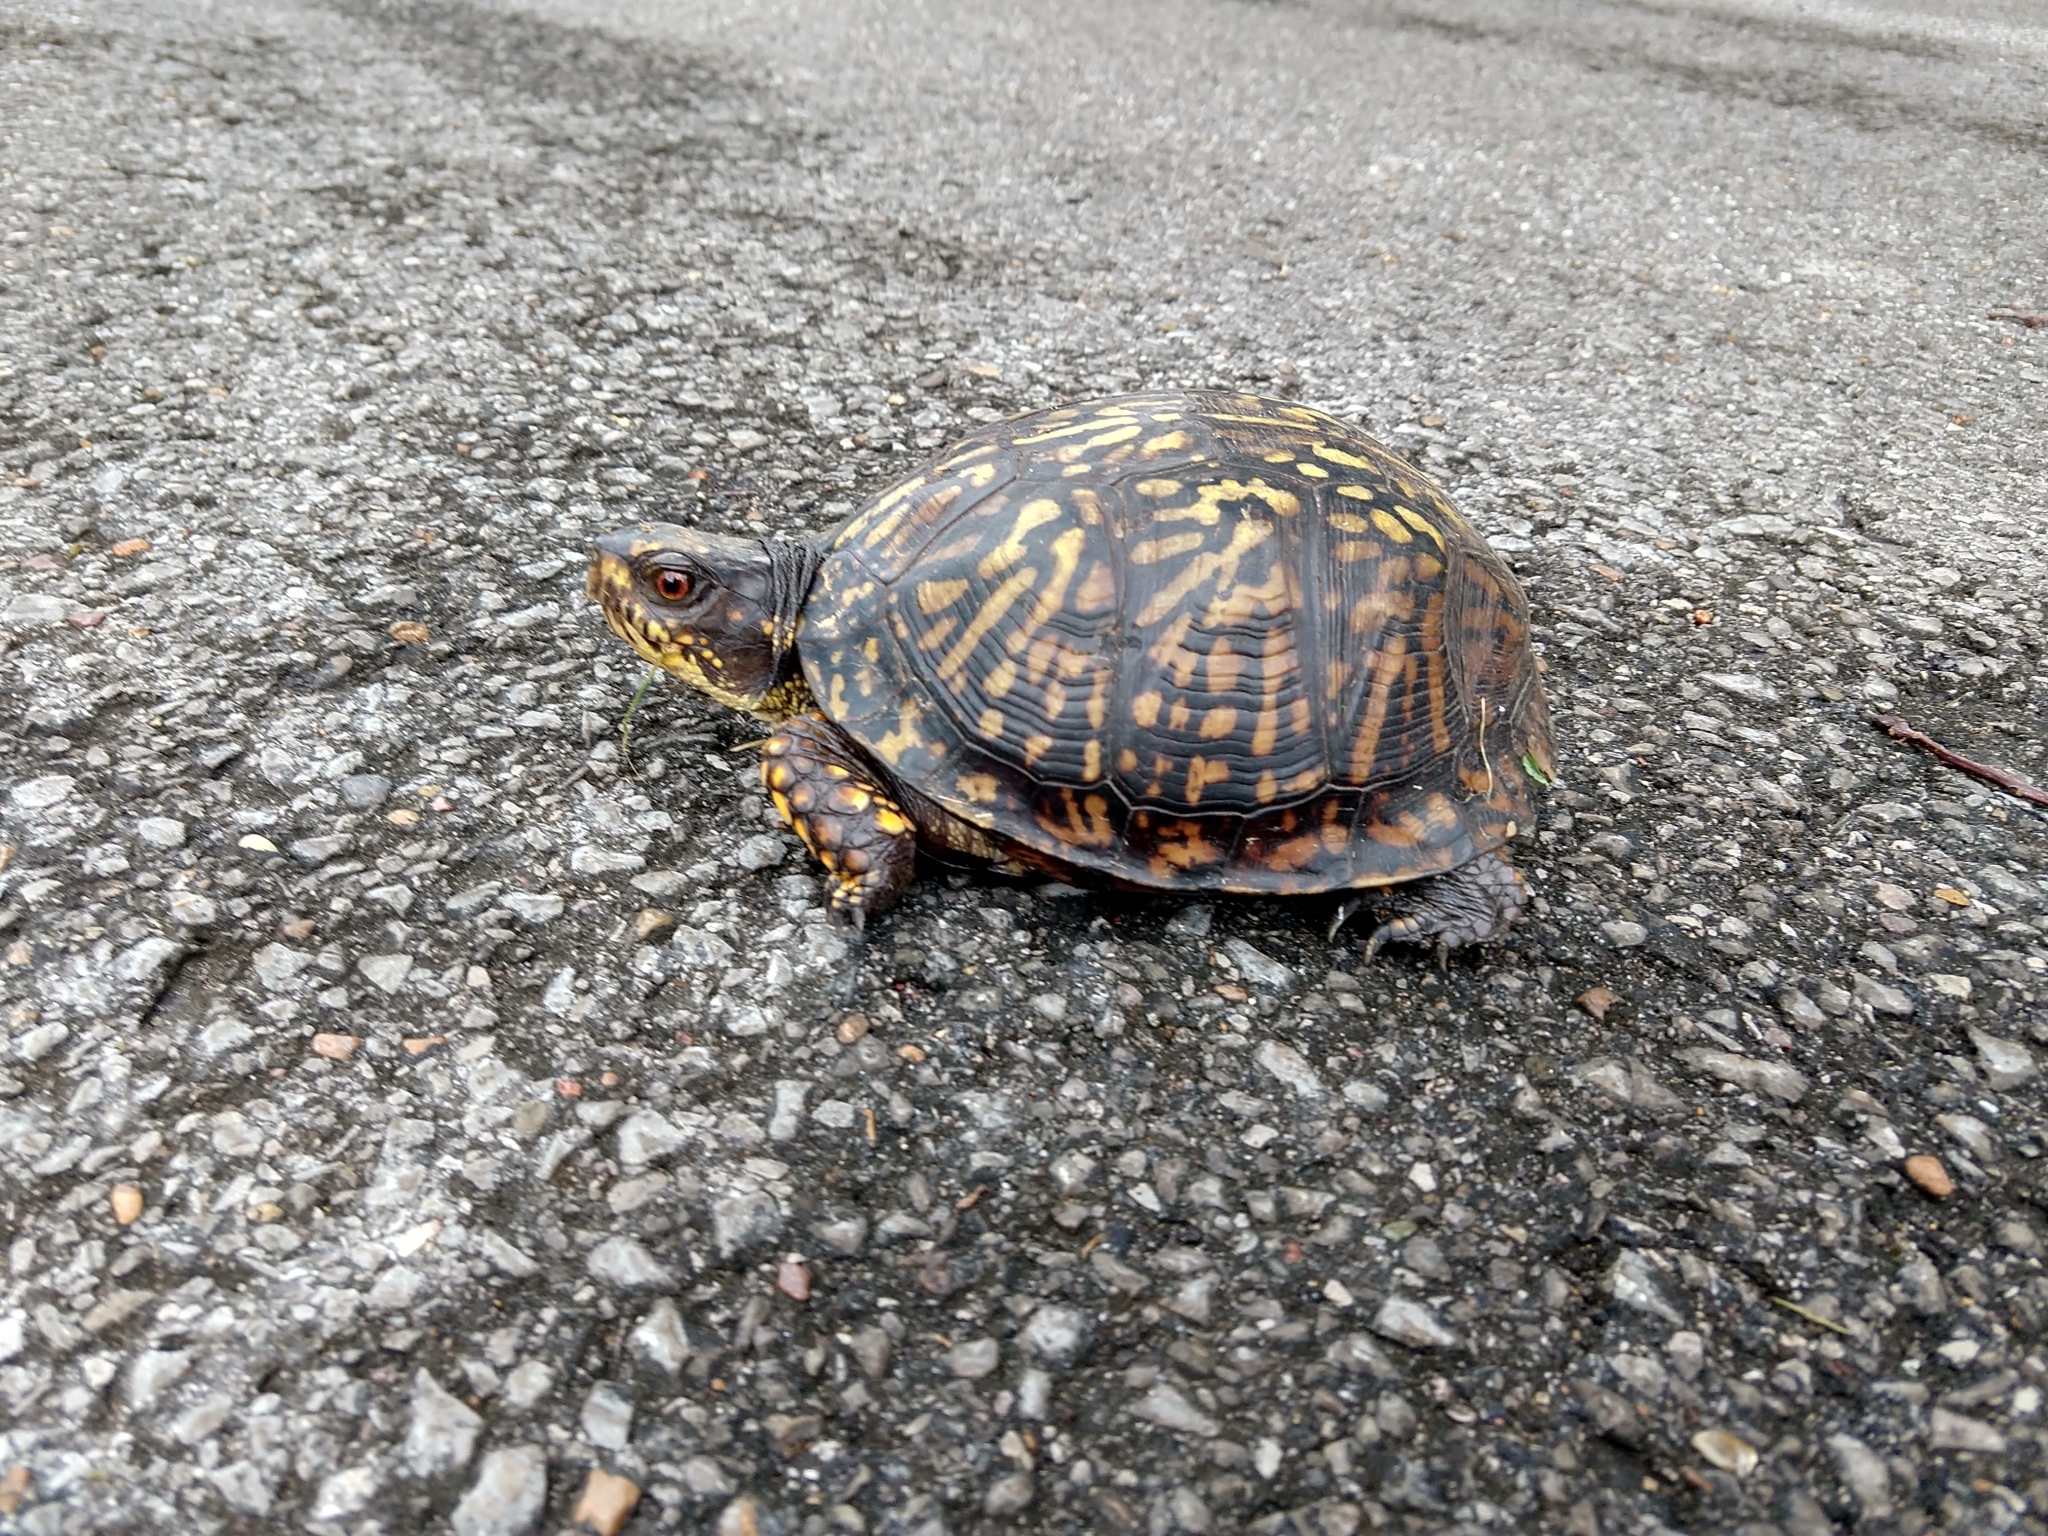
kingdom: Animalia
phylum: Chordata
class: Testudines
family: Emydidae
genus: Terrapene
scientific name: Terrapene carolina
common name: Common box turtle
